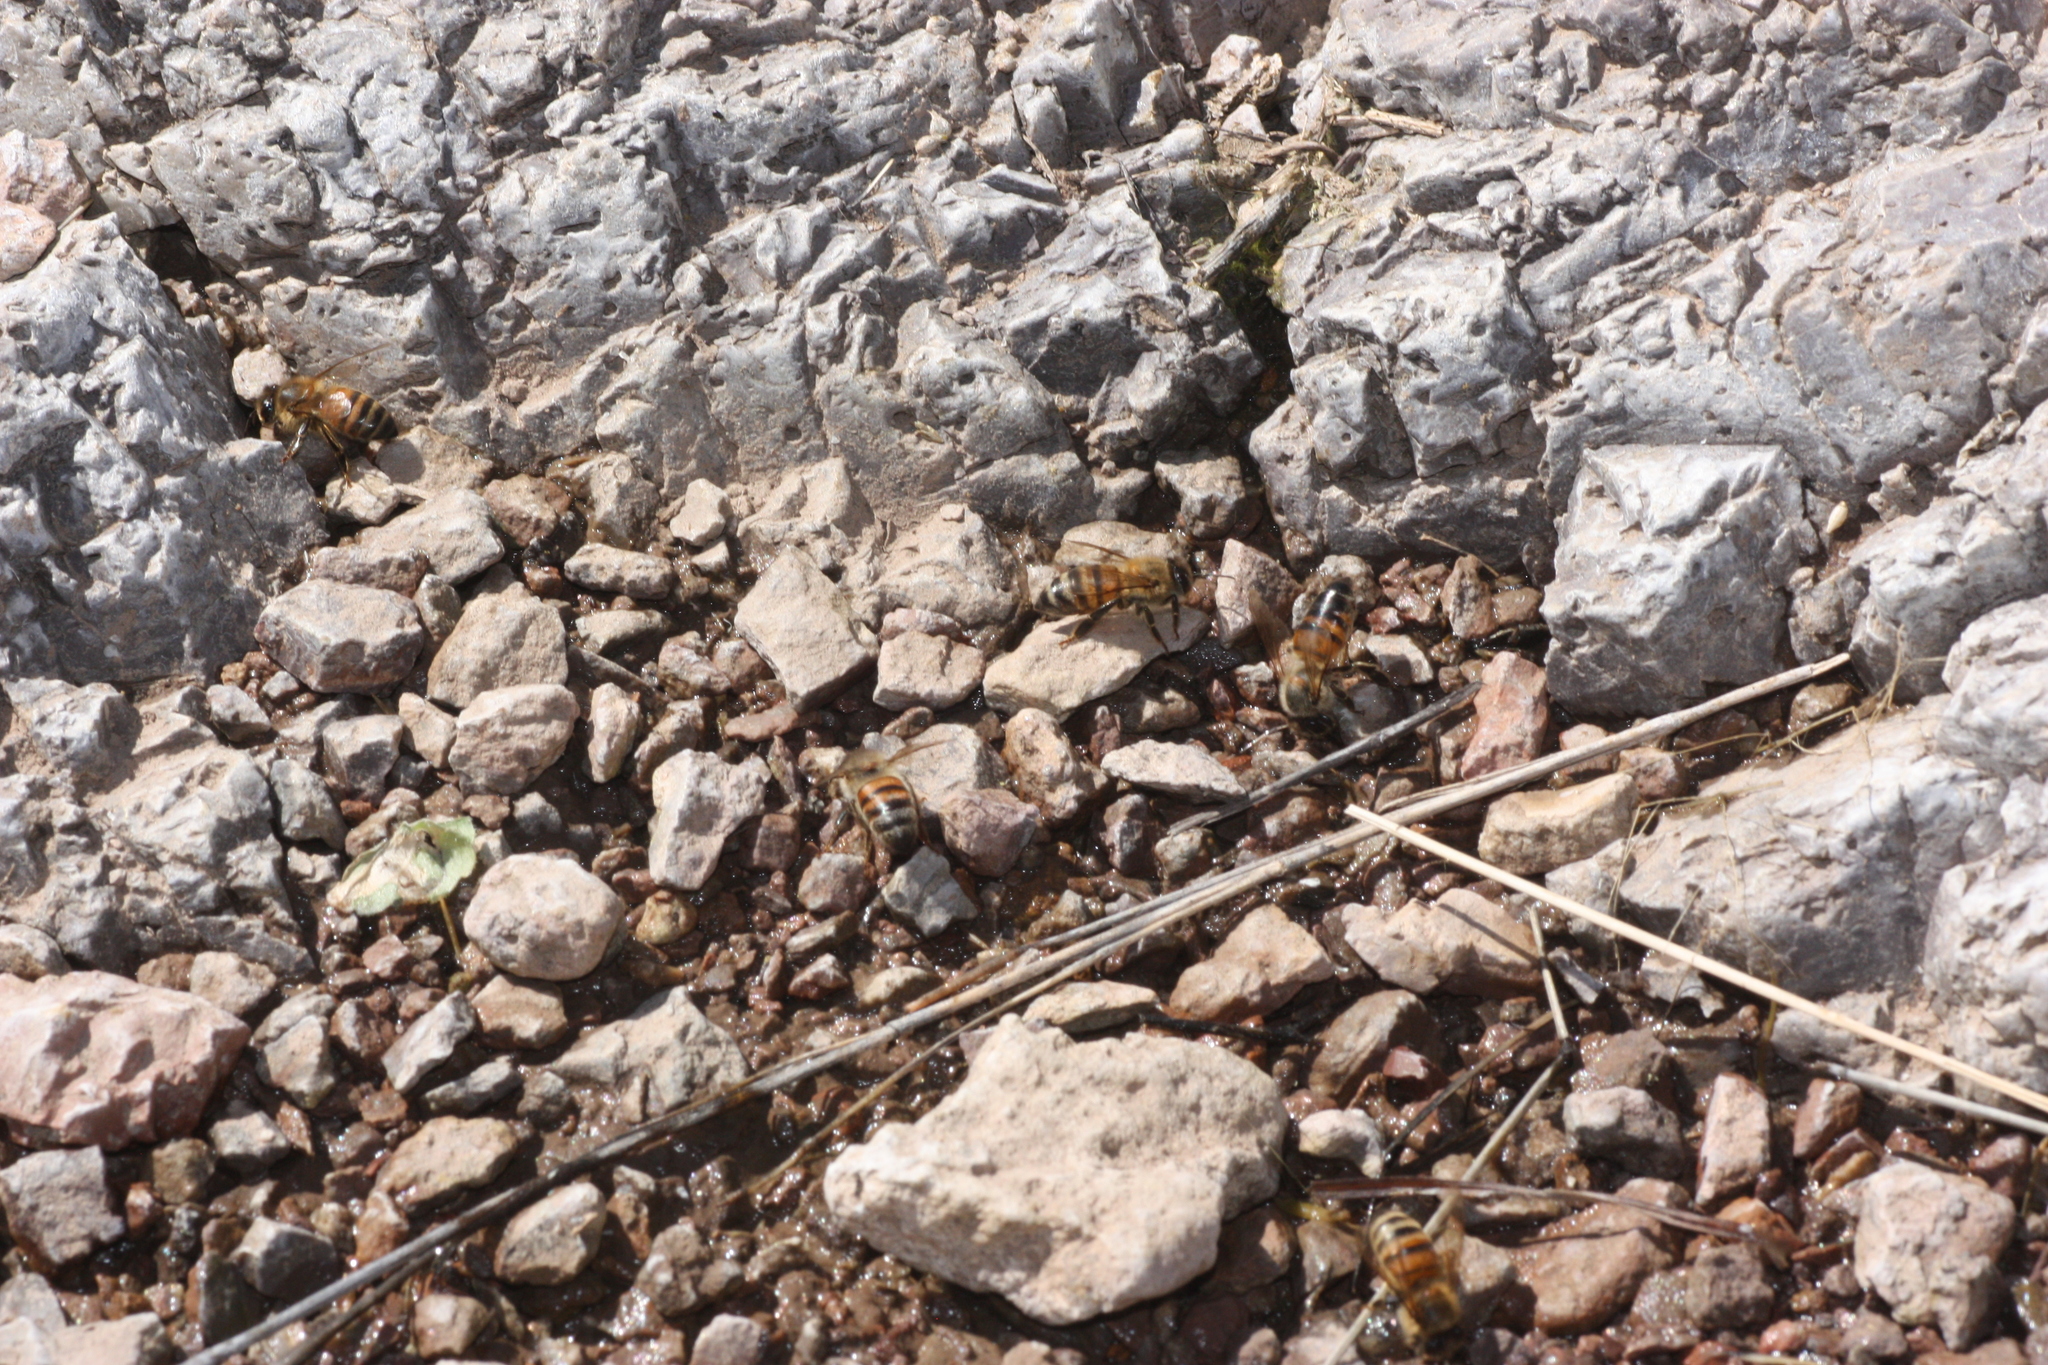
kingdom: Animalia
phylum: Arthropoda
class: Insecta
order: Hymenoptera
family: Apidae
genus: Apis
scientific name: Apis mellifera
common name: Honey bee
